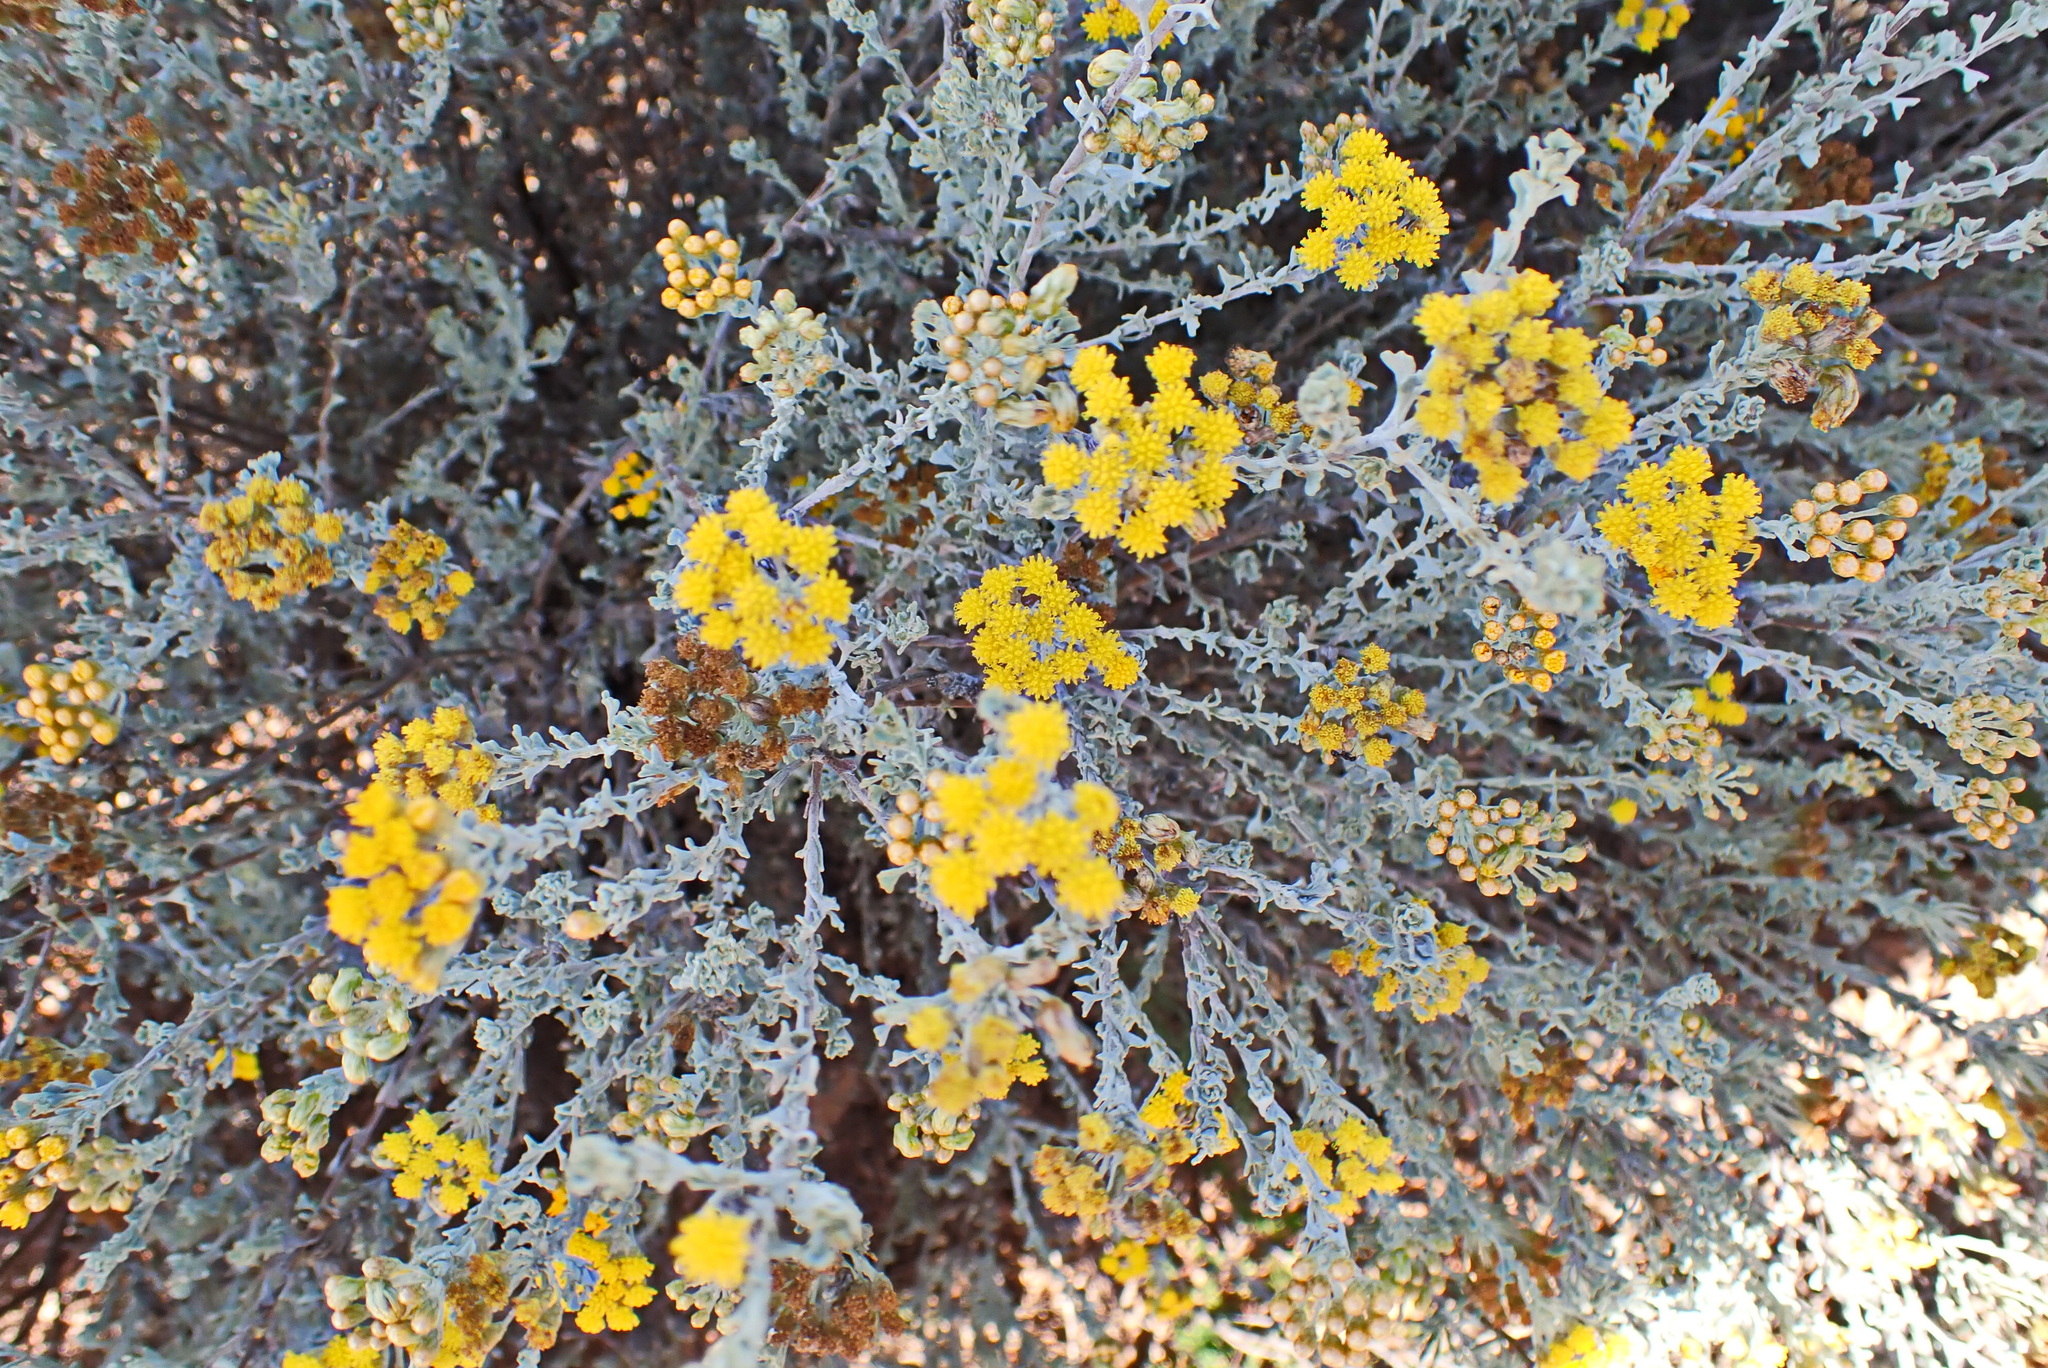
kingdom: Plantae
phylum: Tracheophyta
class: Magnoliopsida
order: Asterales
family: Asteraceae
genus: Pentzia
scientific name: Pentzia elegans
